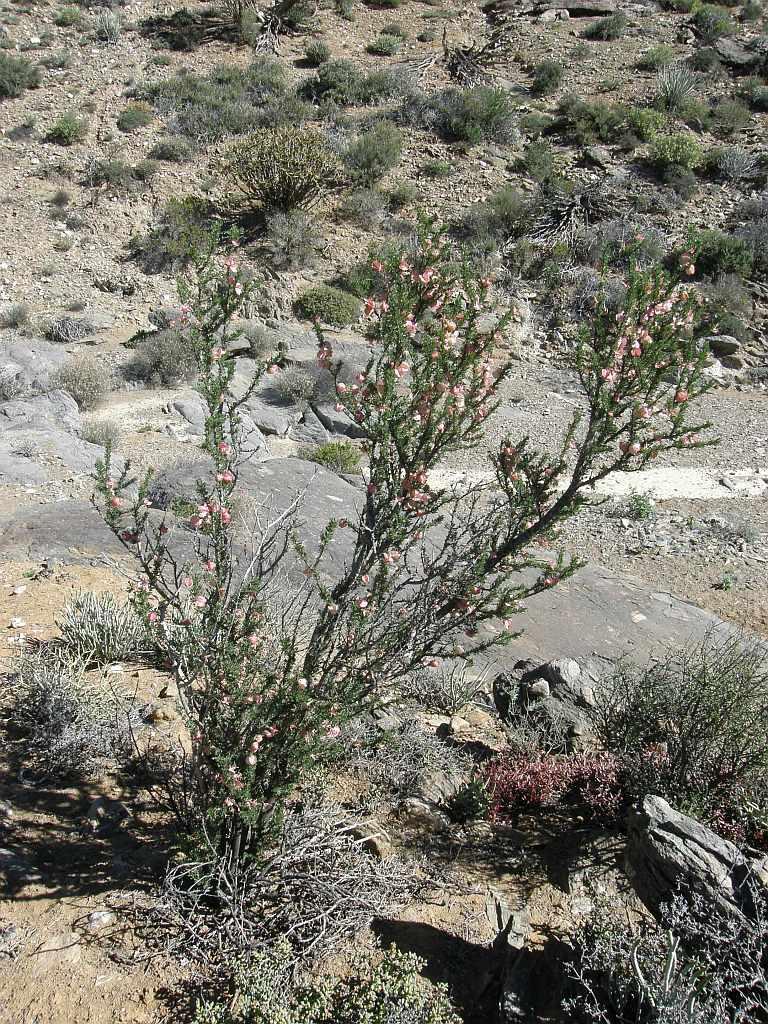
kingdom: Plantae
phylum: Tracheophyta
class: Magnoliopsida
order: Sapindales
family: Meliaceae
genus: Nymania
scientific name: Nymania capensis
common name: Chinese lantern tree
